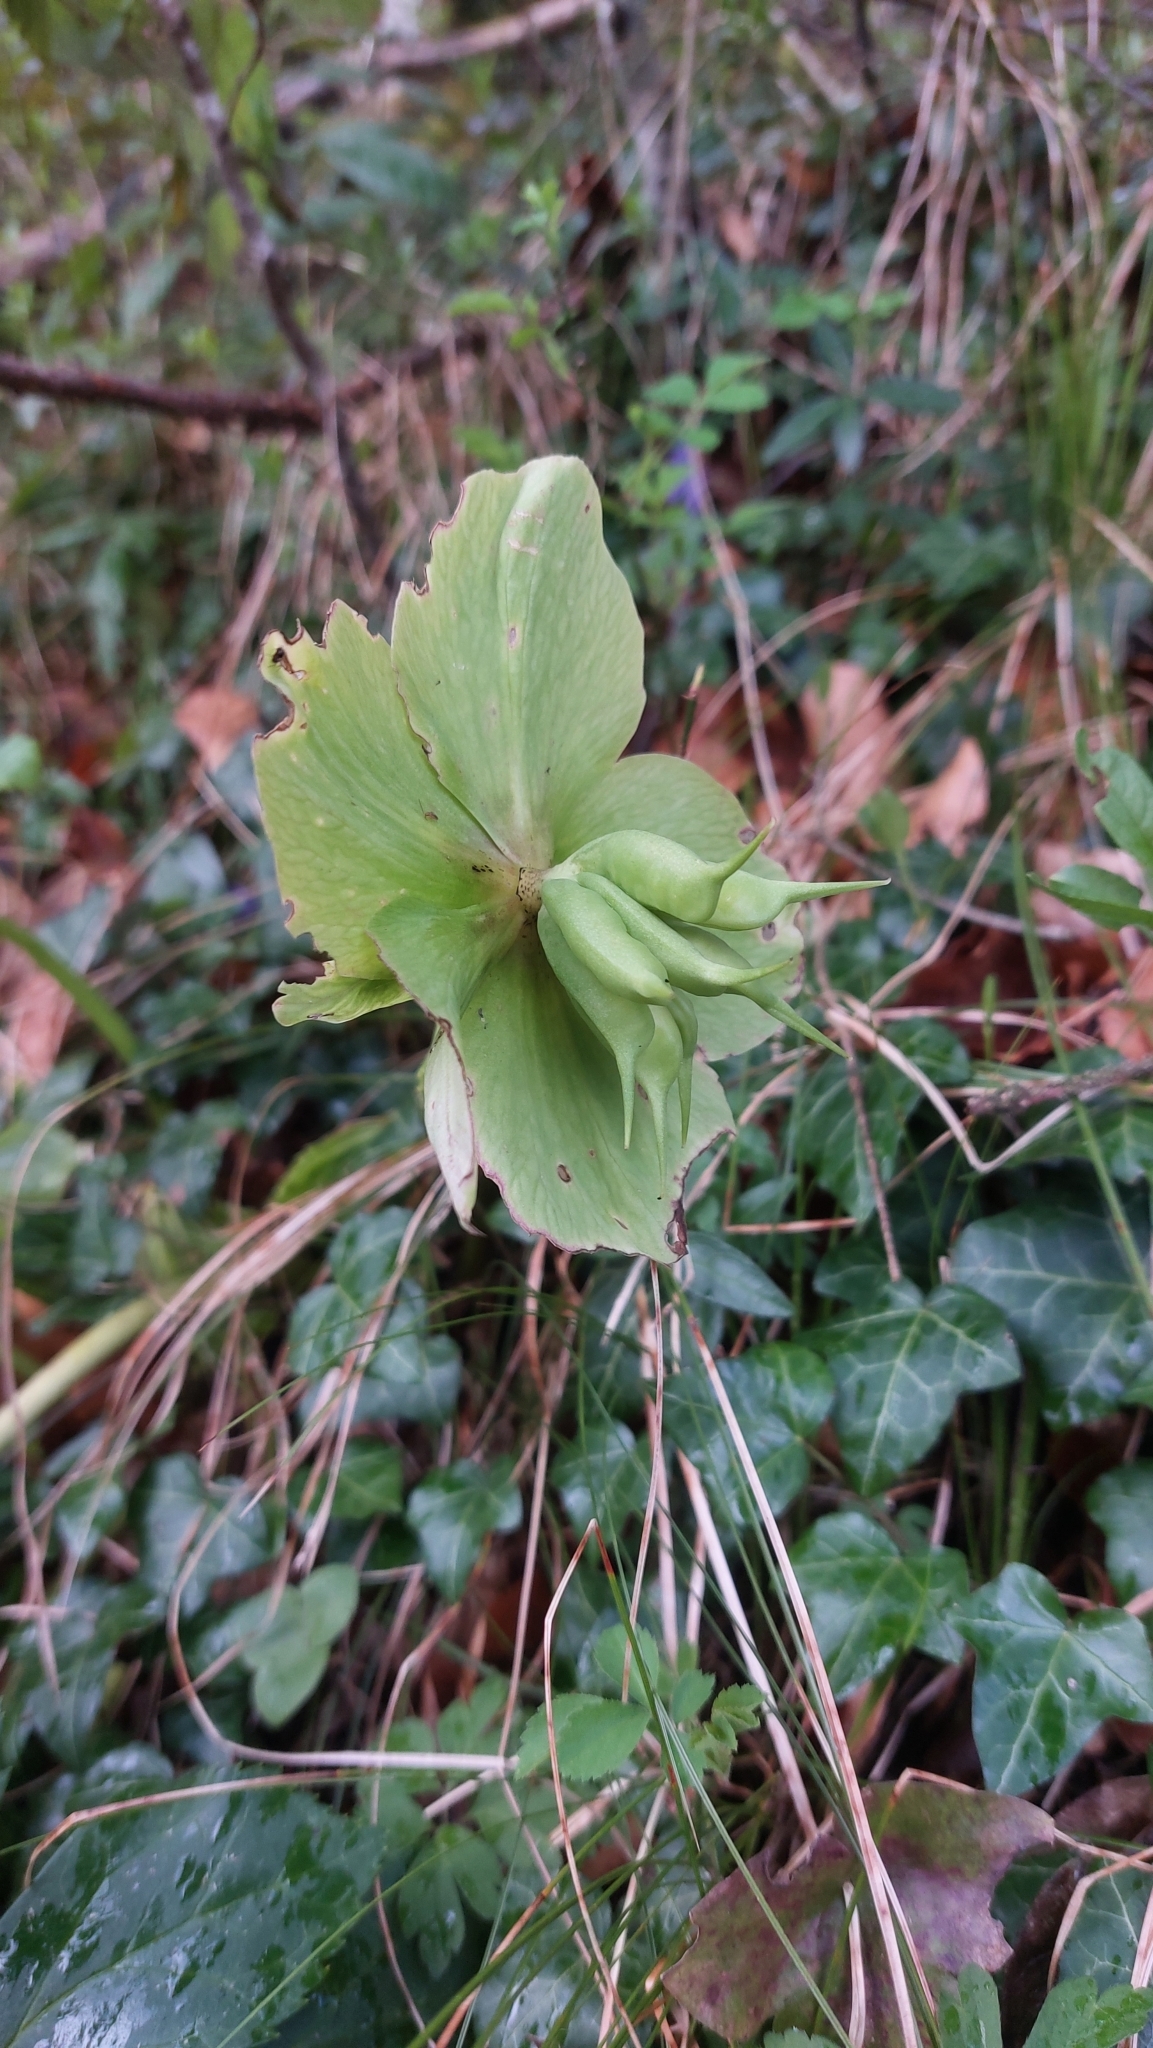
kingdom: Plantae
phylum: Tracheophyta
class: Magnoliopsida
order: Ranunculales
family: Ranunculaceae
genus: Helleborus
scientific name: Helleborus niger
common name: Black hellebore
